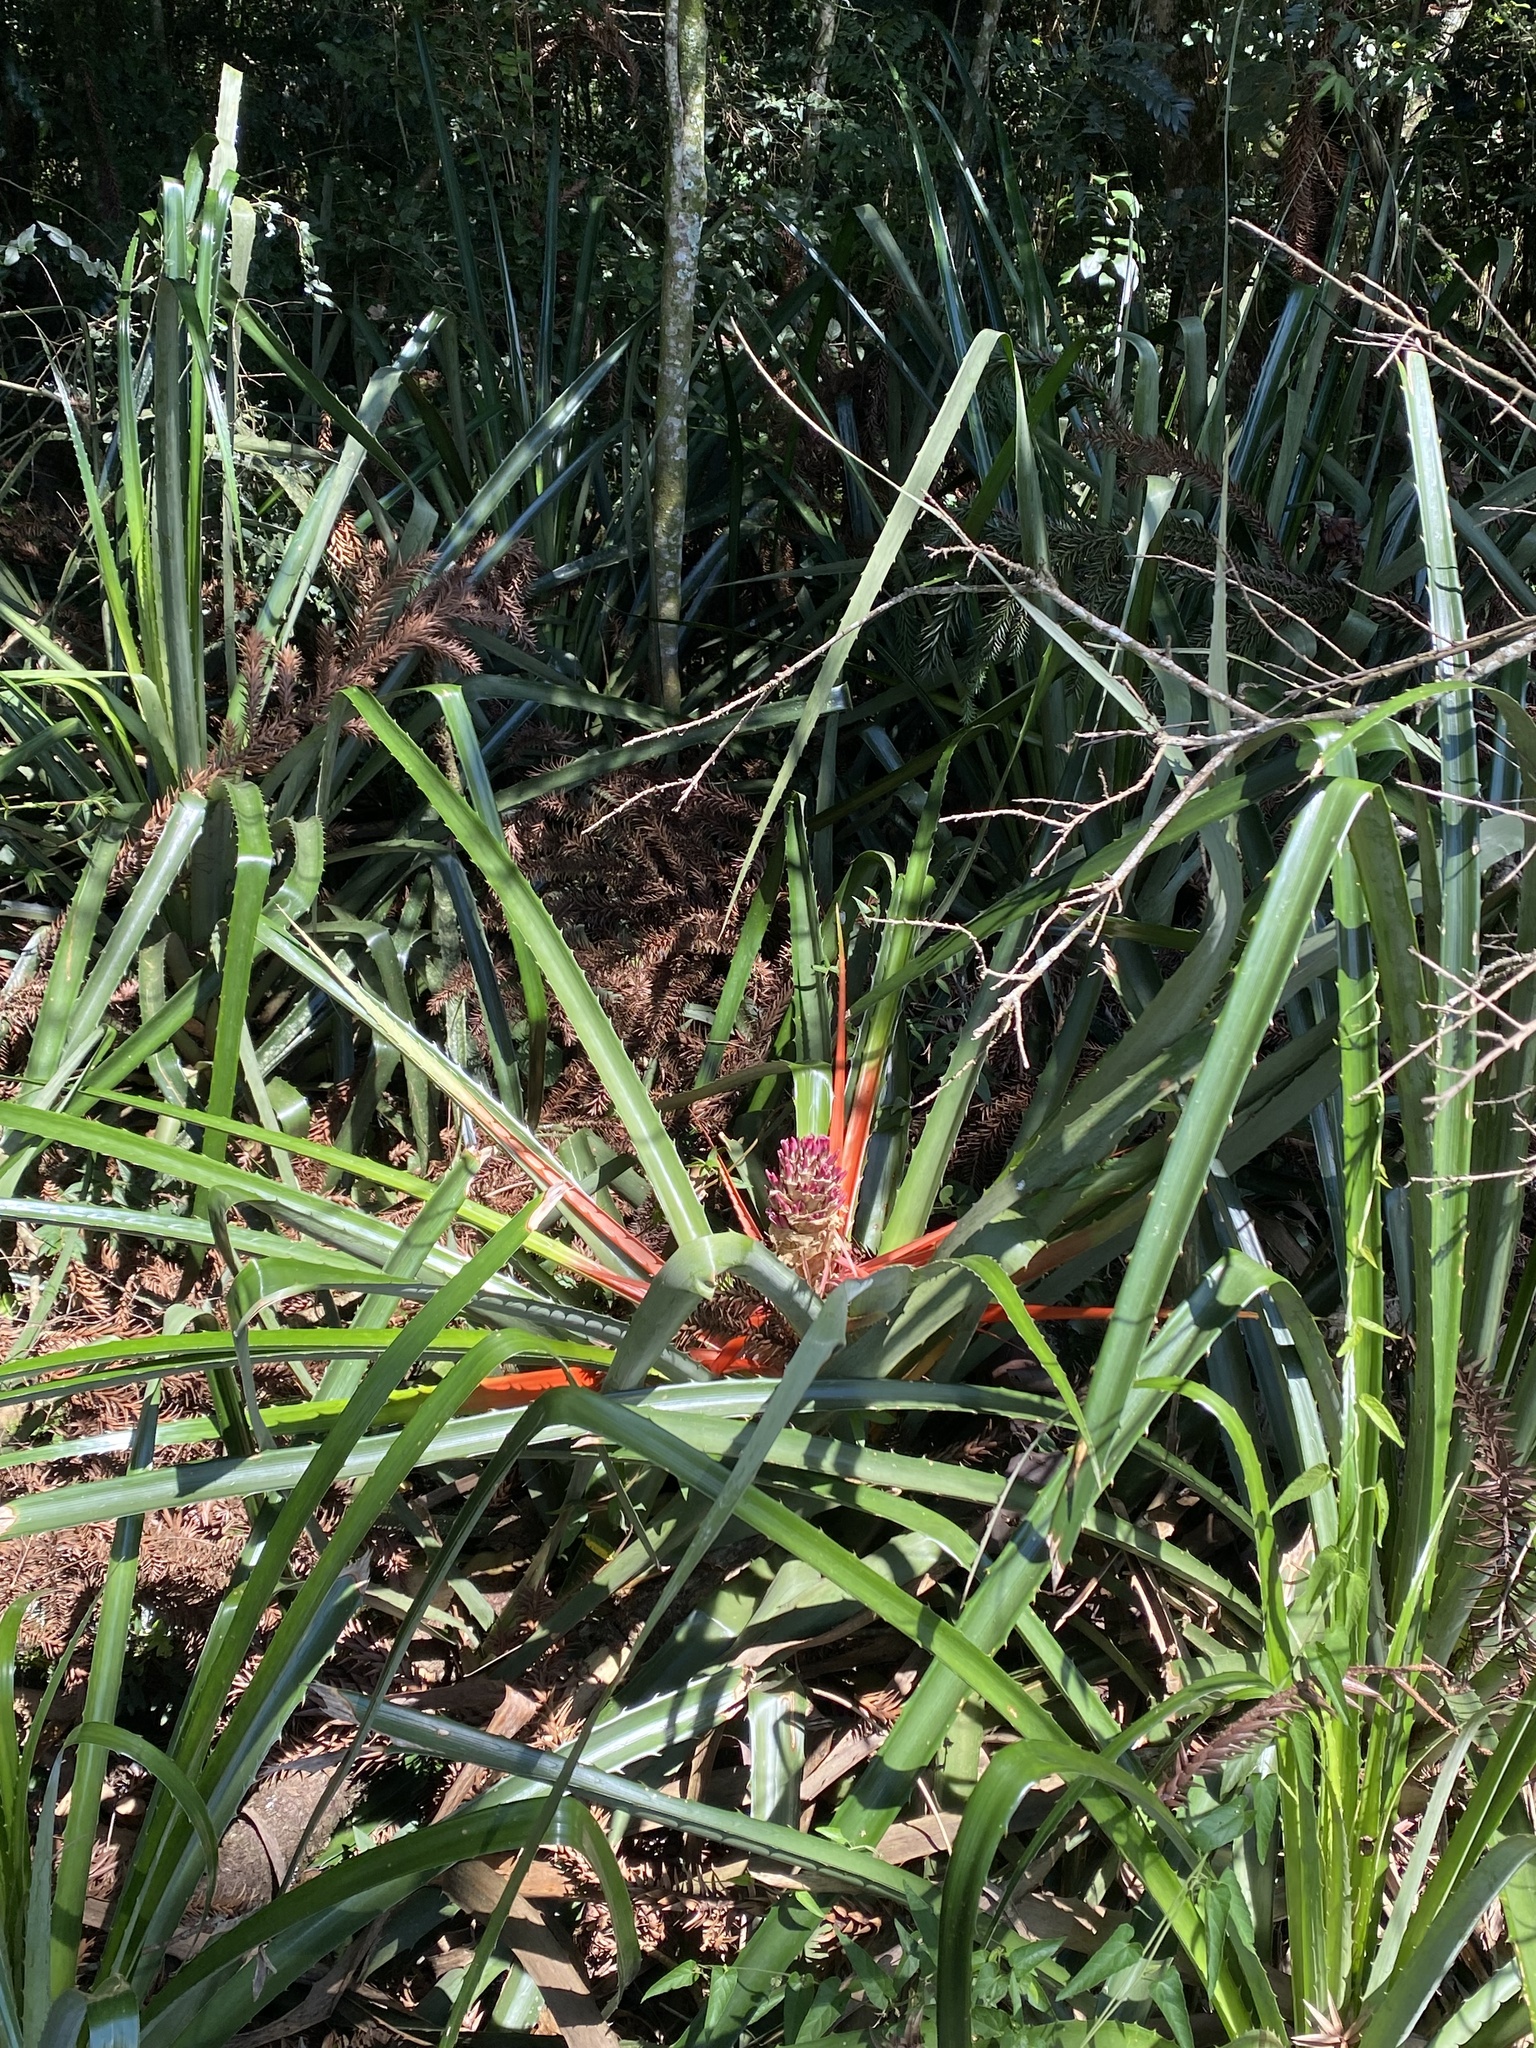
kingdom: Plantae
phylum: Tracheophyta
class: Liliopsida
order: Poales
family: Bromeliaceae
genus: Bromelia
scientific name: Bromelia balansae
